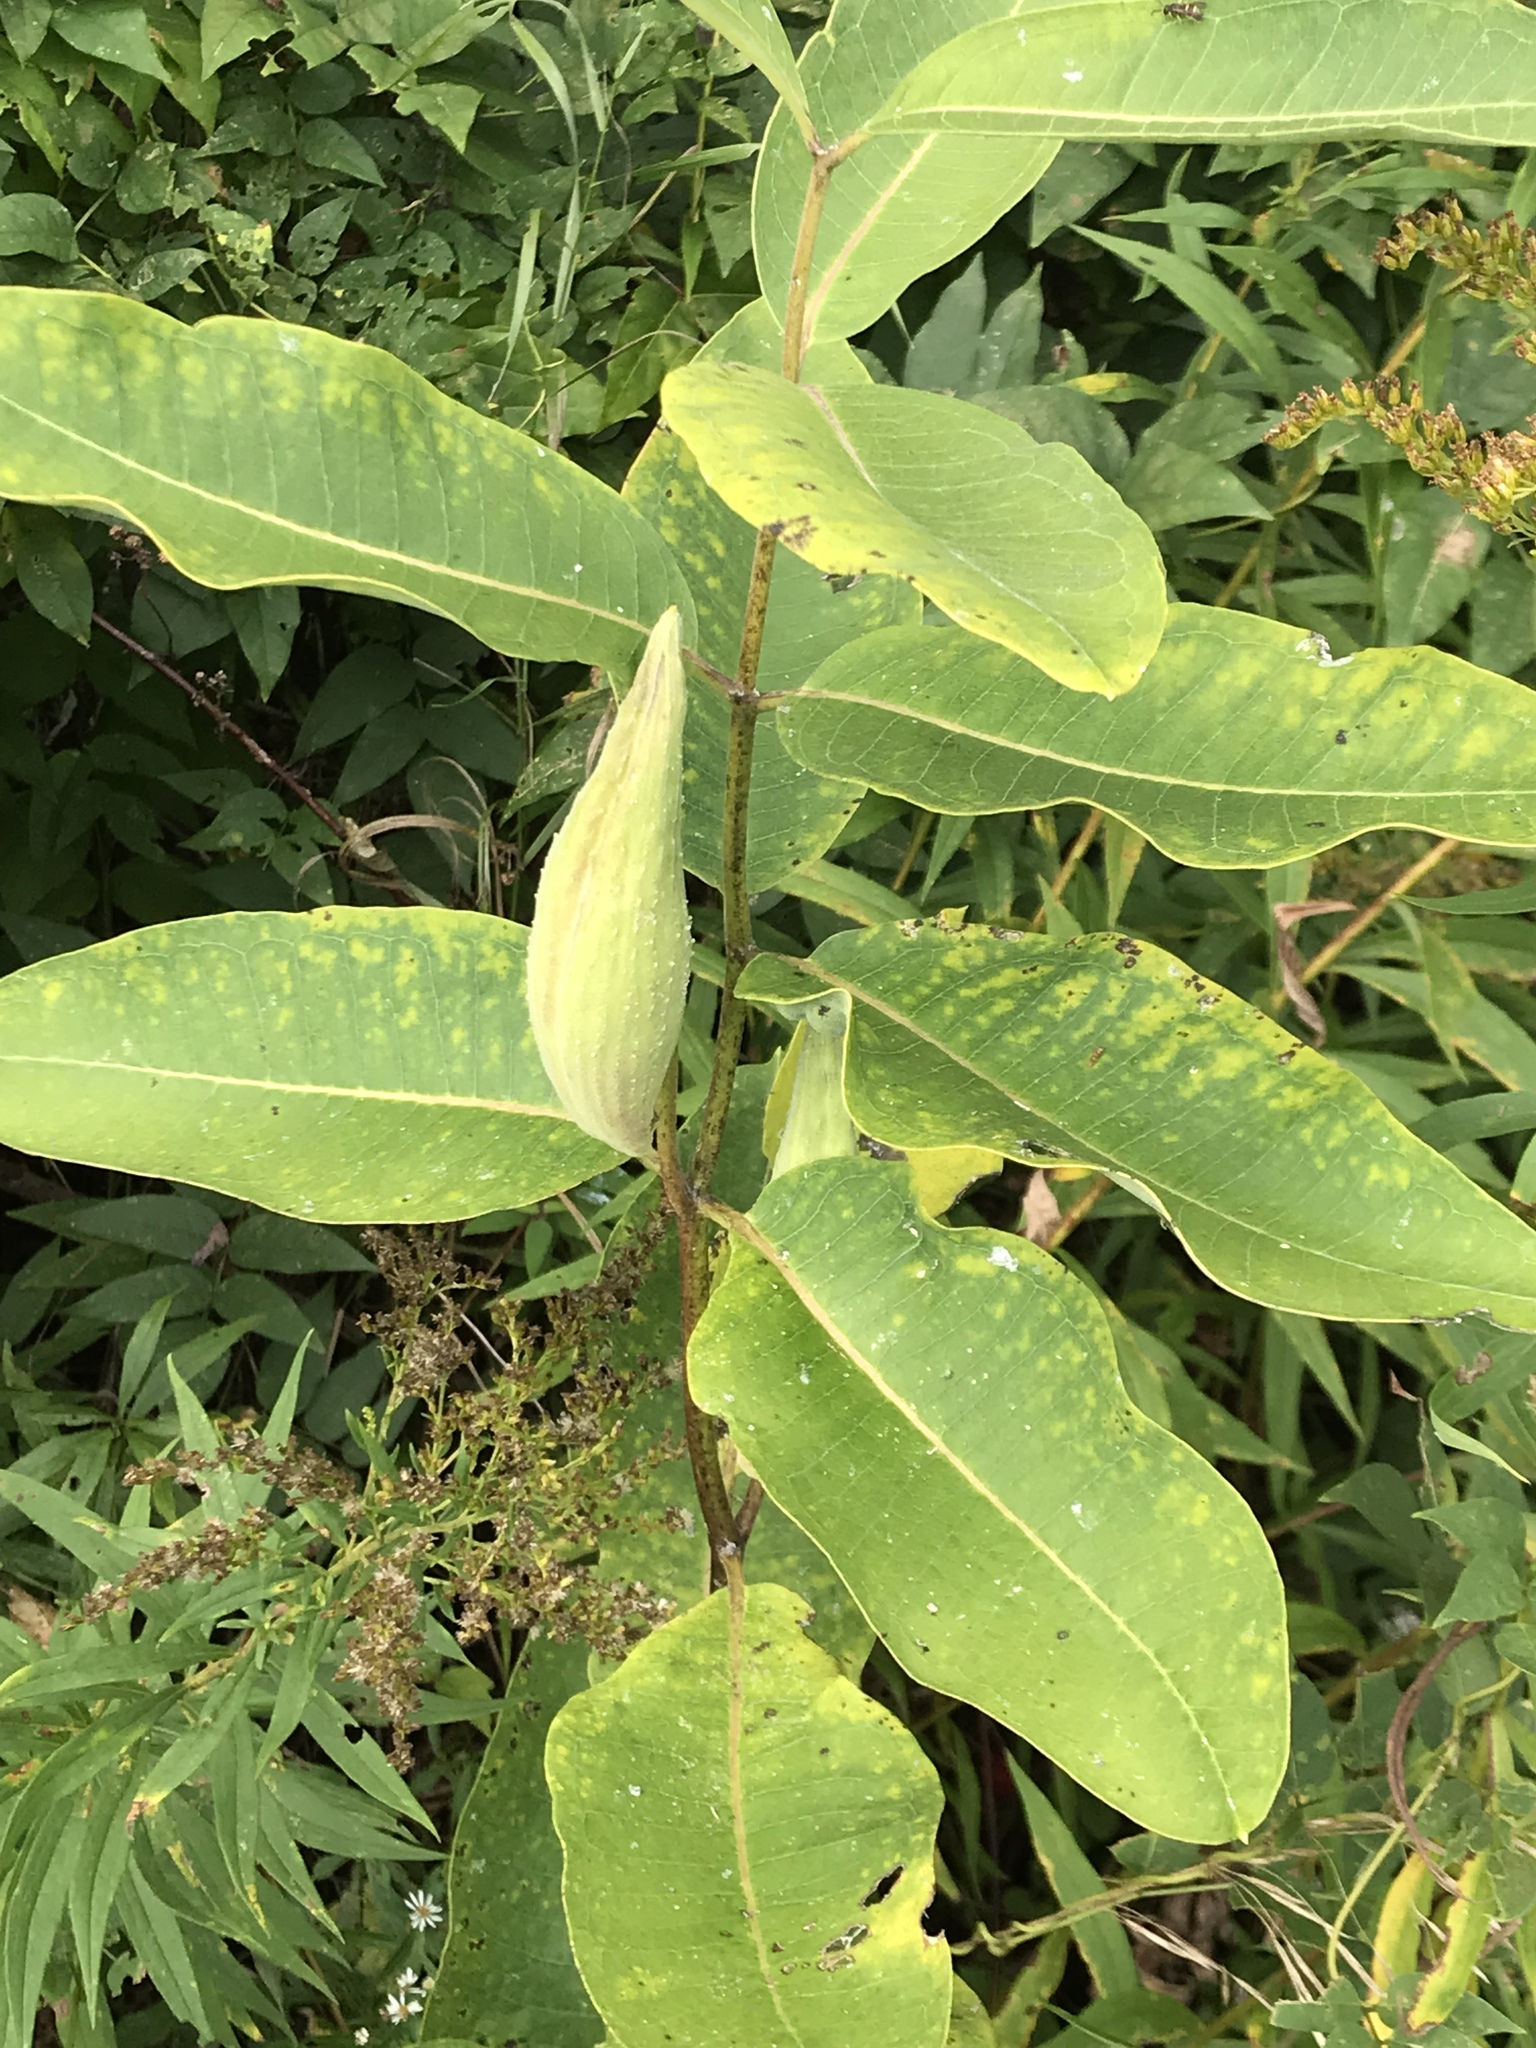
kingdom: Plantae
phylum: Tracheophyta
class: Magnoliopsida
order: Gentianales
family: Apocynaceae
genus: Asclepias
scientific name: Asclepias syriaca
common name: Common milkweed
